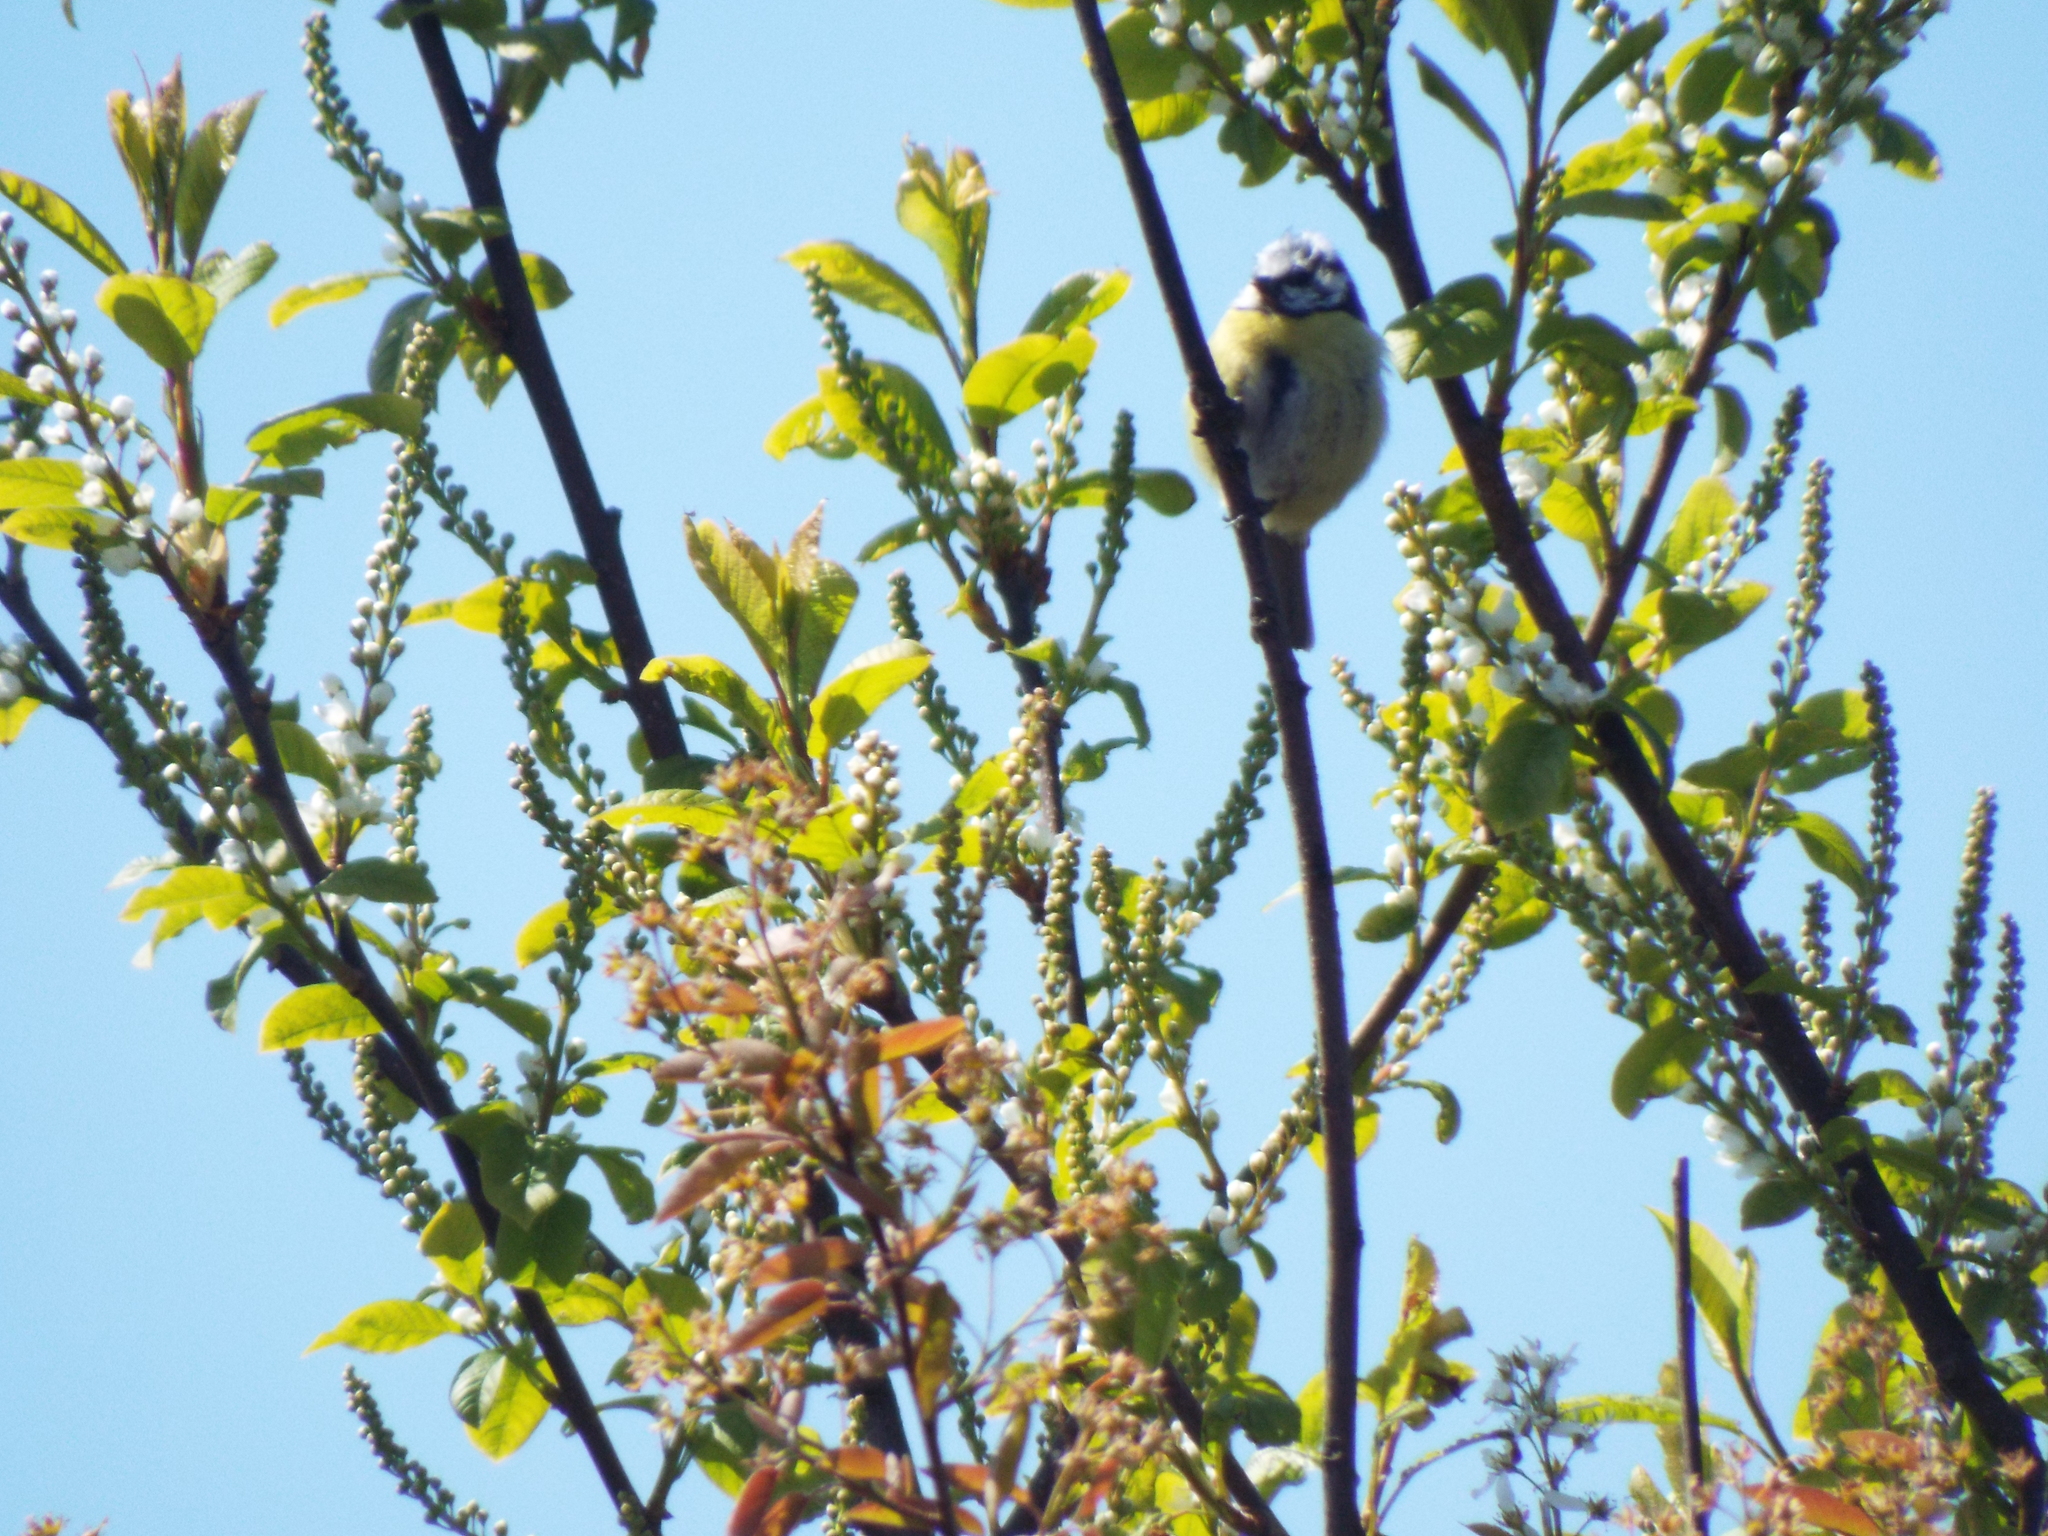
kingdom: Animalia
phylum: Chordata
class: Aves
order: Passeriformes
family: Paridae
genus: Cyanistes
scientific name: Cyanistes caeruleus
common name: Eurasian blue tit
